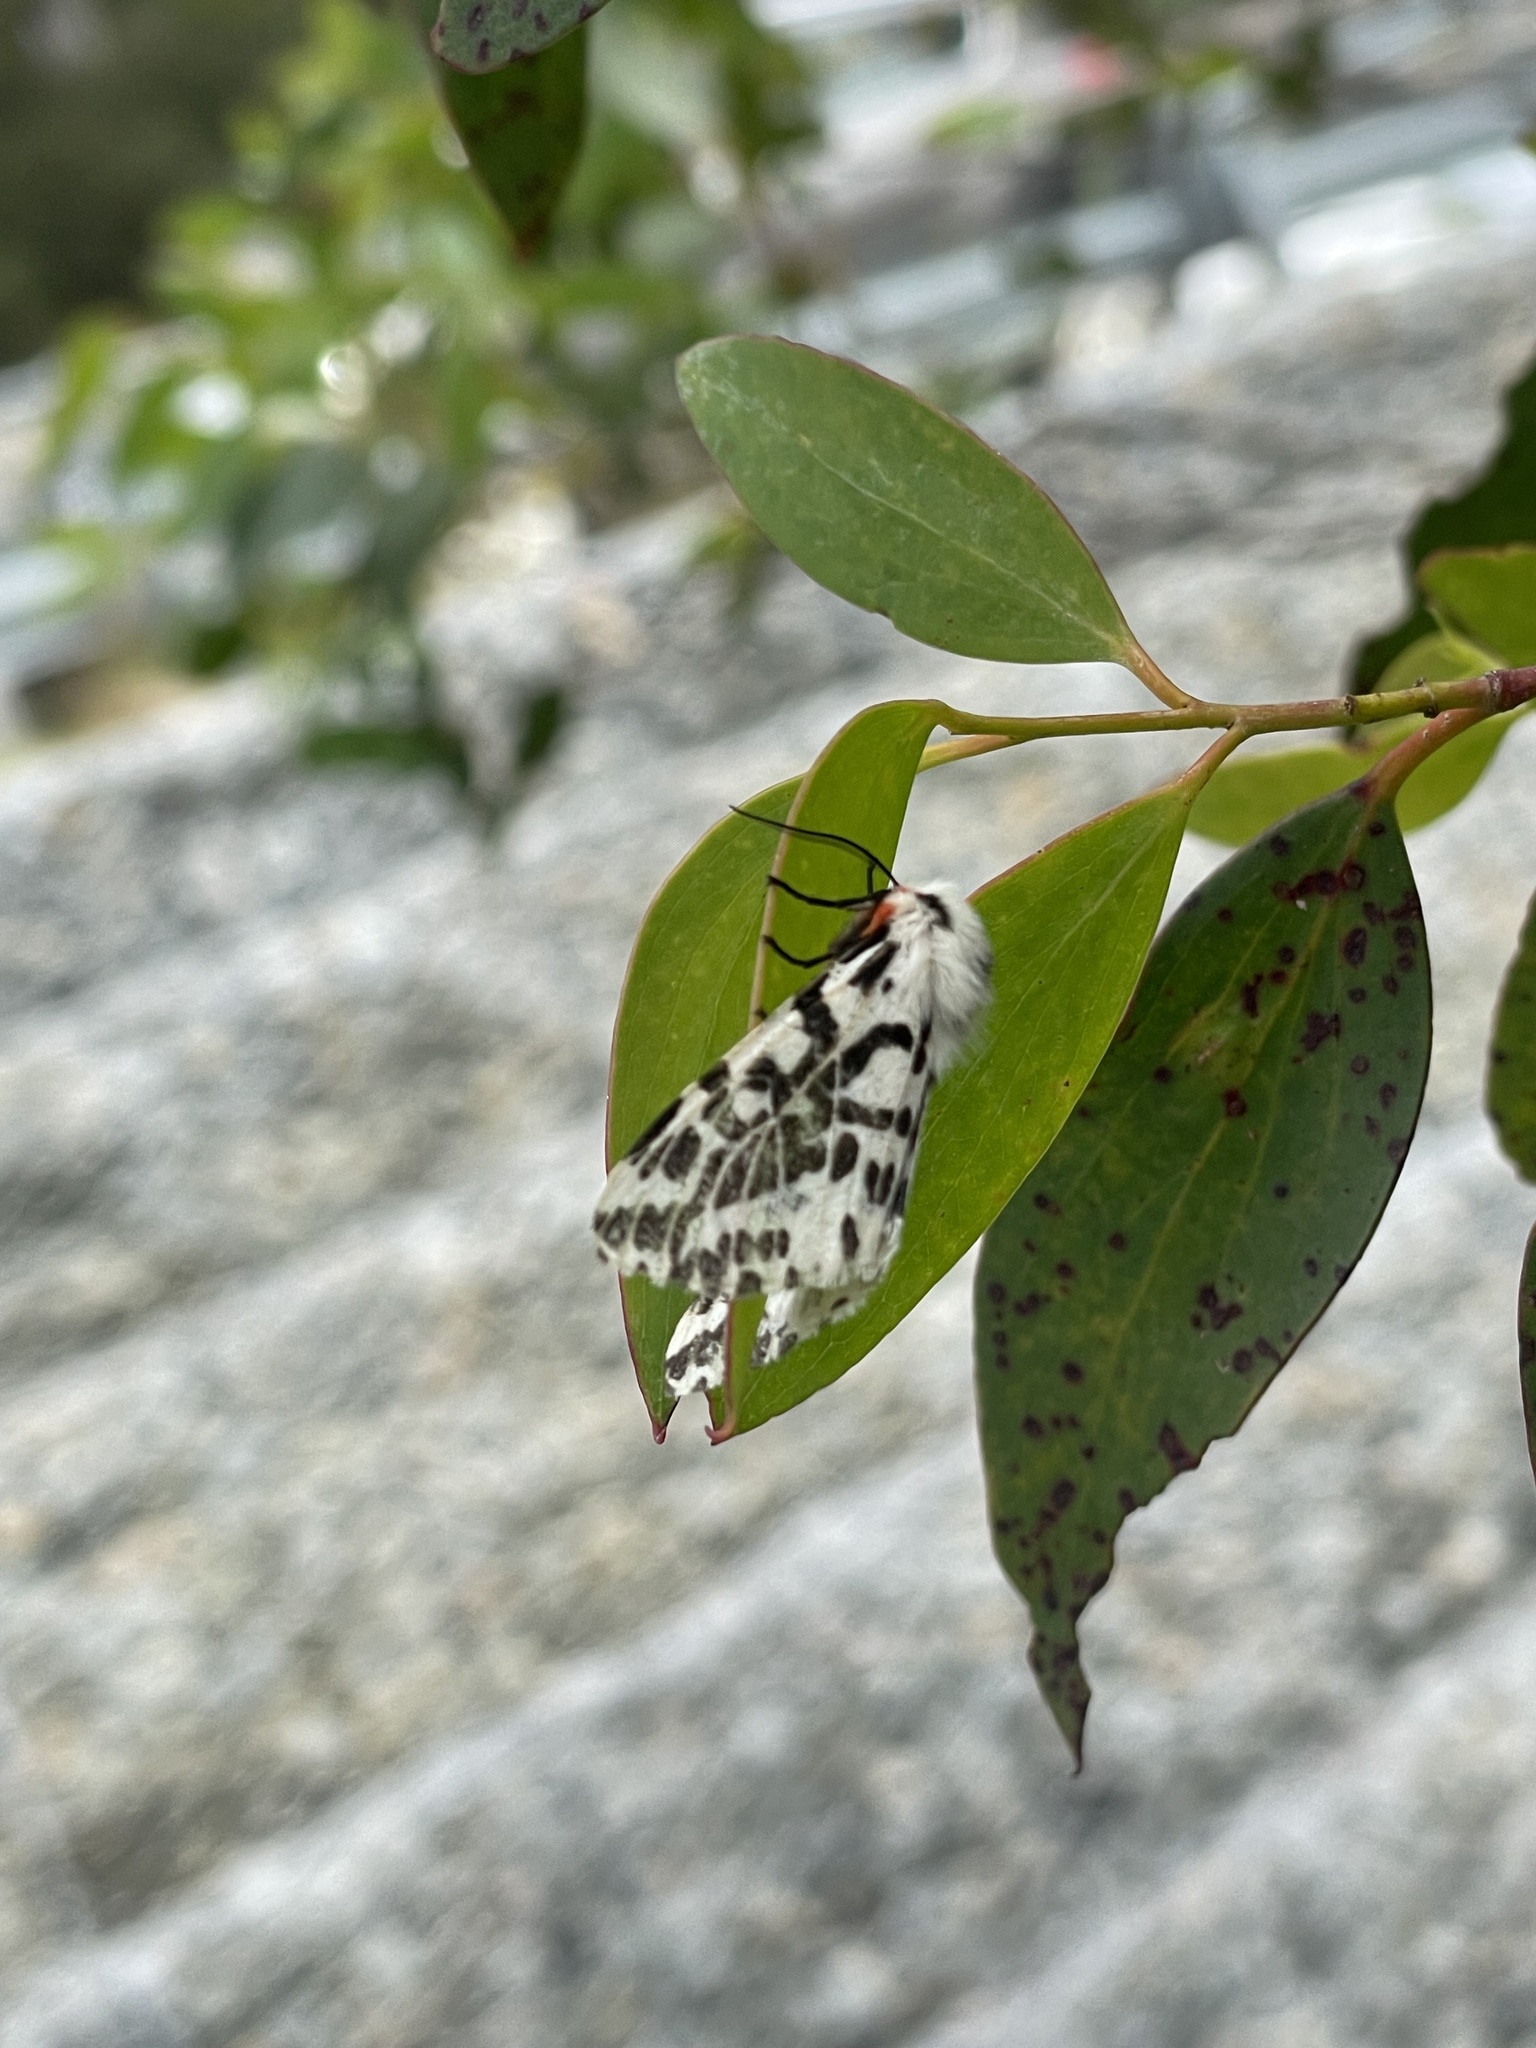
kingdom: Animalia
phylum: Arthropoda
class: Insecta
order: Lepidoptera
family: Erebidae
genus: Ardices
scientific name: Ardices glatignyi
